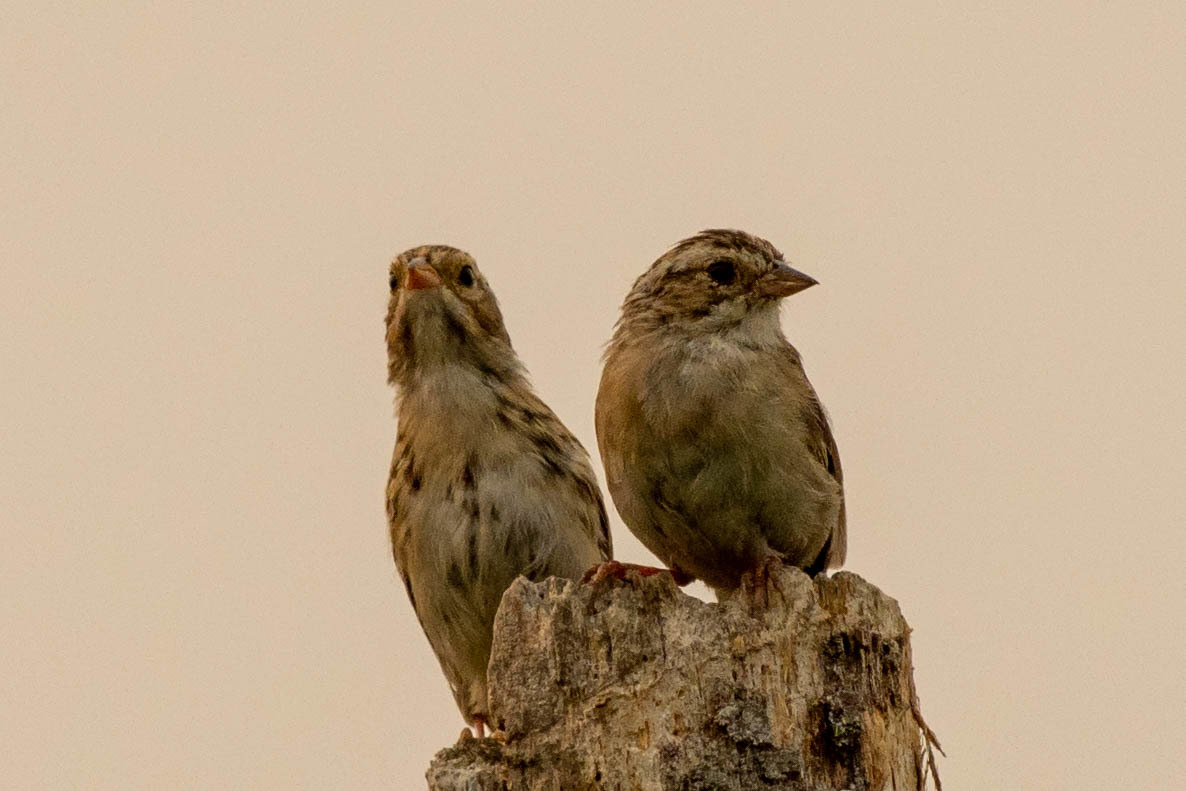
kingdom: Animalia
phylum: Chordata
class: Aves
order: Passeriformes
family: Passerellidae
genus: Spizella
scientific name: Spizella pallida
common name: Clay-colored sparrow
